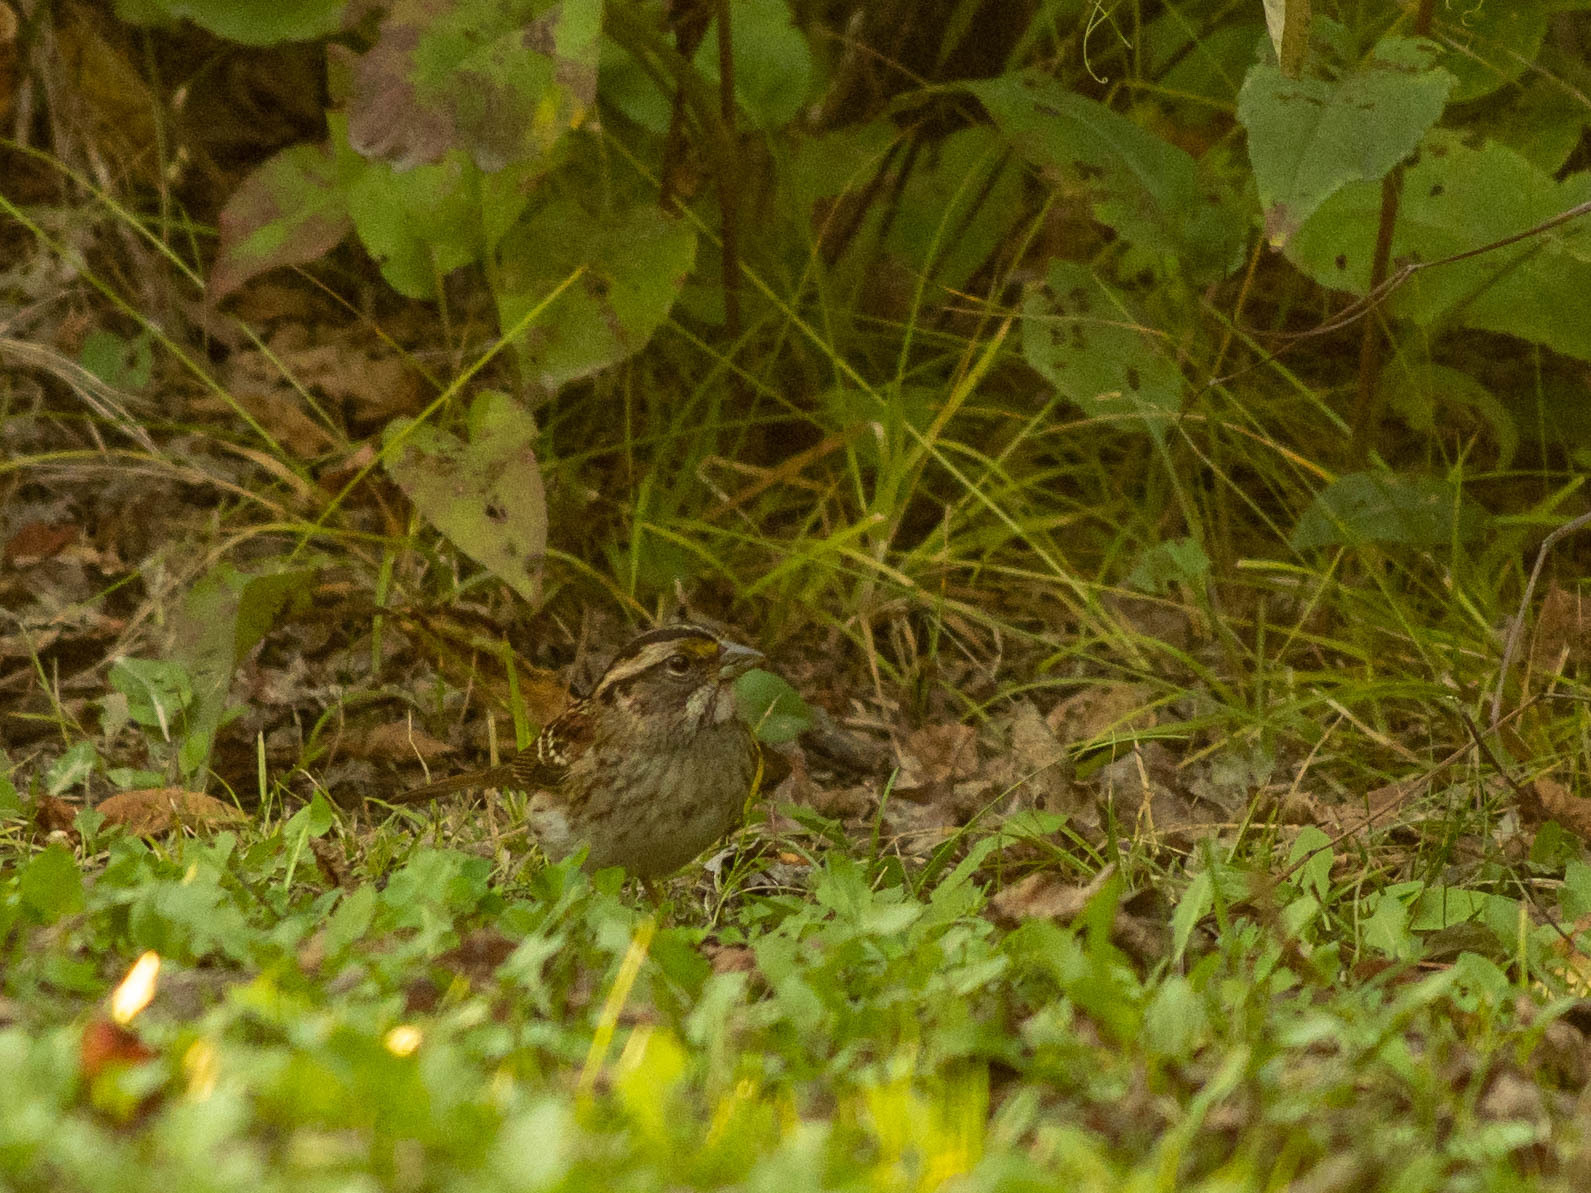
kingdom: Animalia
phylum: Chordata
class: Aves
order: Passeriformes
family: Passerellidae
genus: Zonotrichia
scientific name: Zonotrichia albicollis
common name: White-throated sparrow
